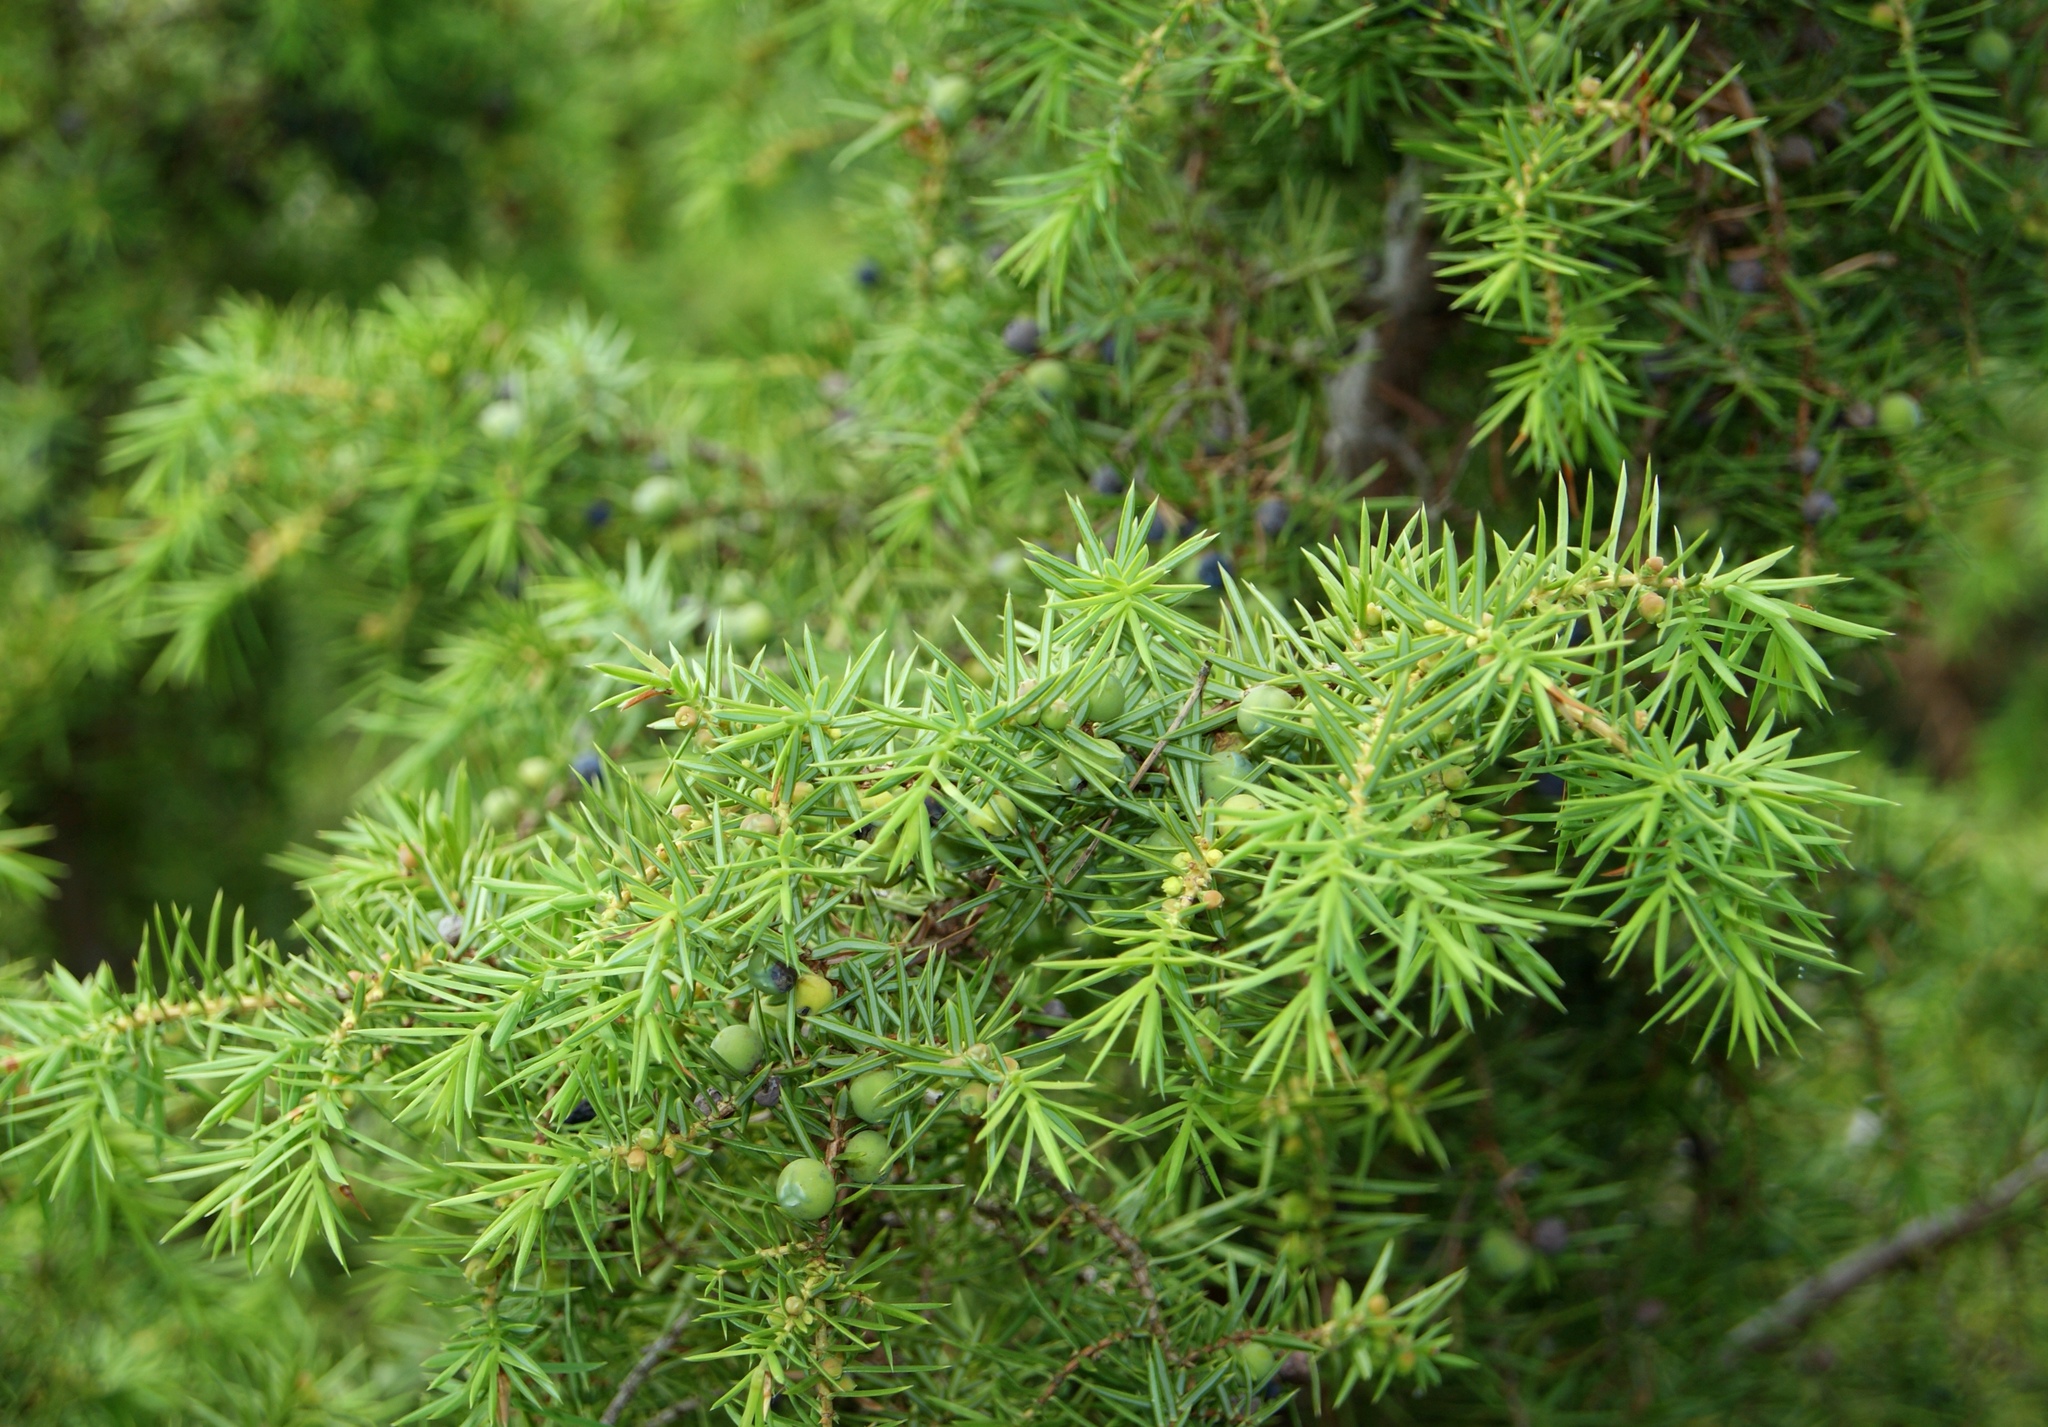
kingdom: Plantae
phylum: Tracheophyta
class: Pinopsida
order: Pinales
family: Cupressaceae
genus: Juniperus
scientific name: Juniperus communis
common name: Common juniper
